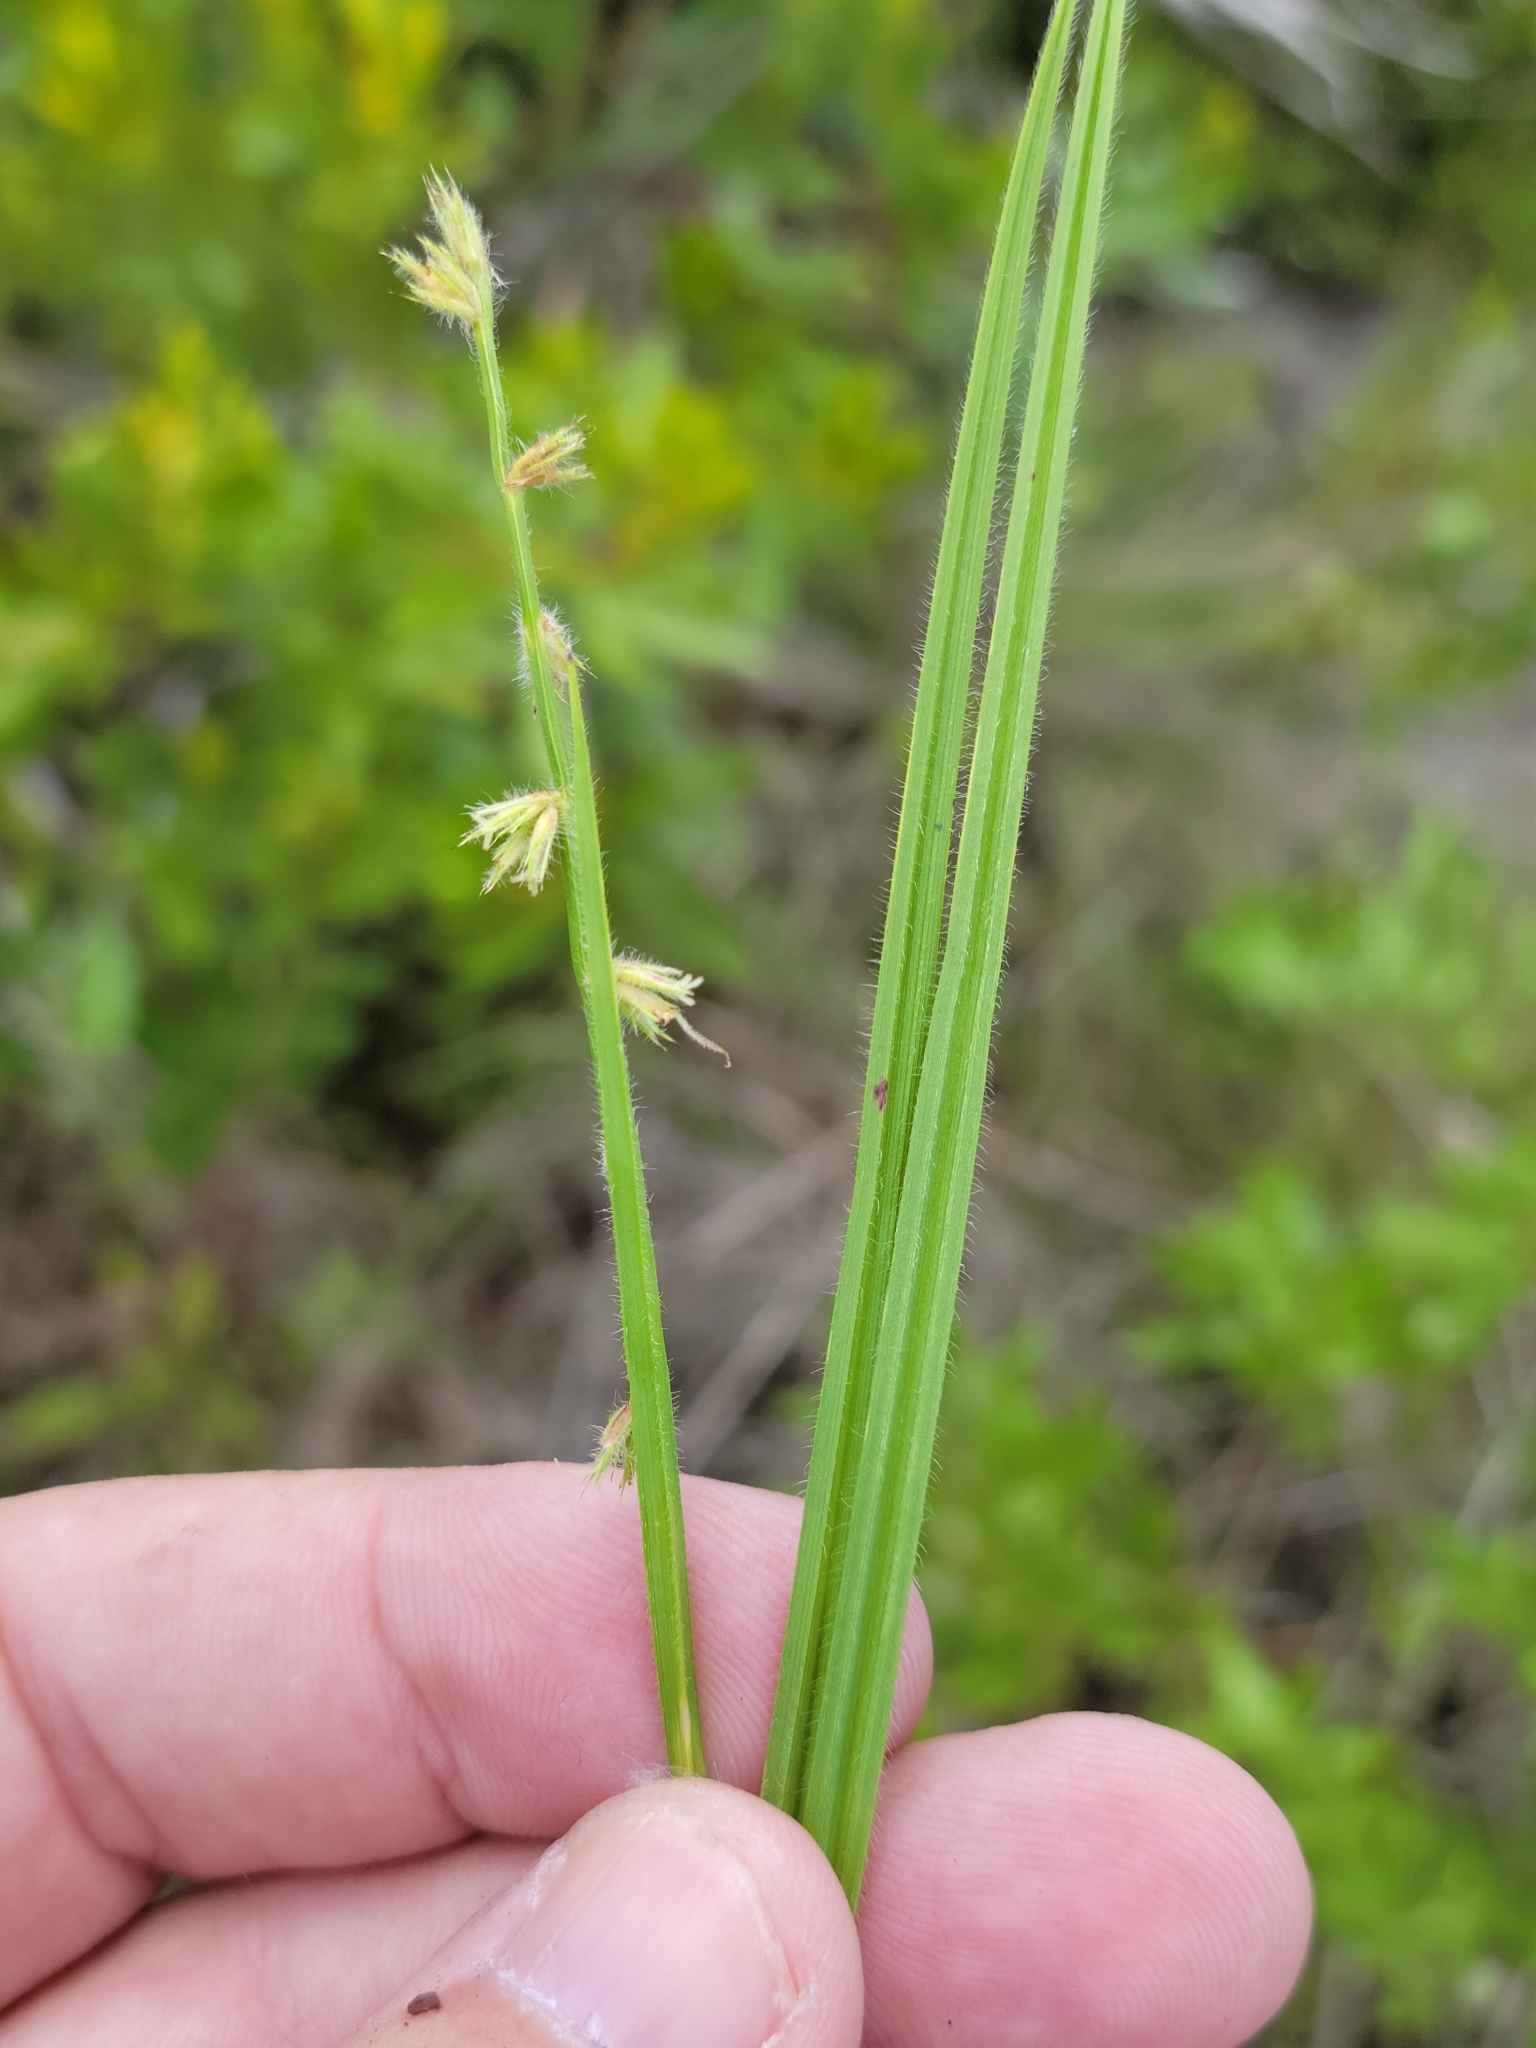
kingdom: Plantae
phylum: Tracheophyta
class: Liliopsida
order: Poales
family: Cyperaceae
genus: Scleria
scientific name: Scleria distans
